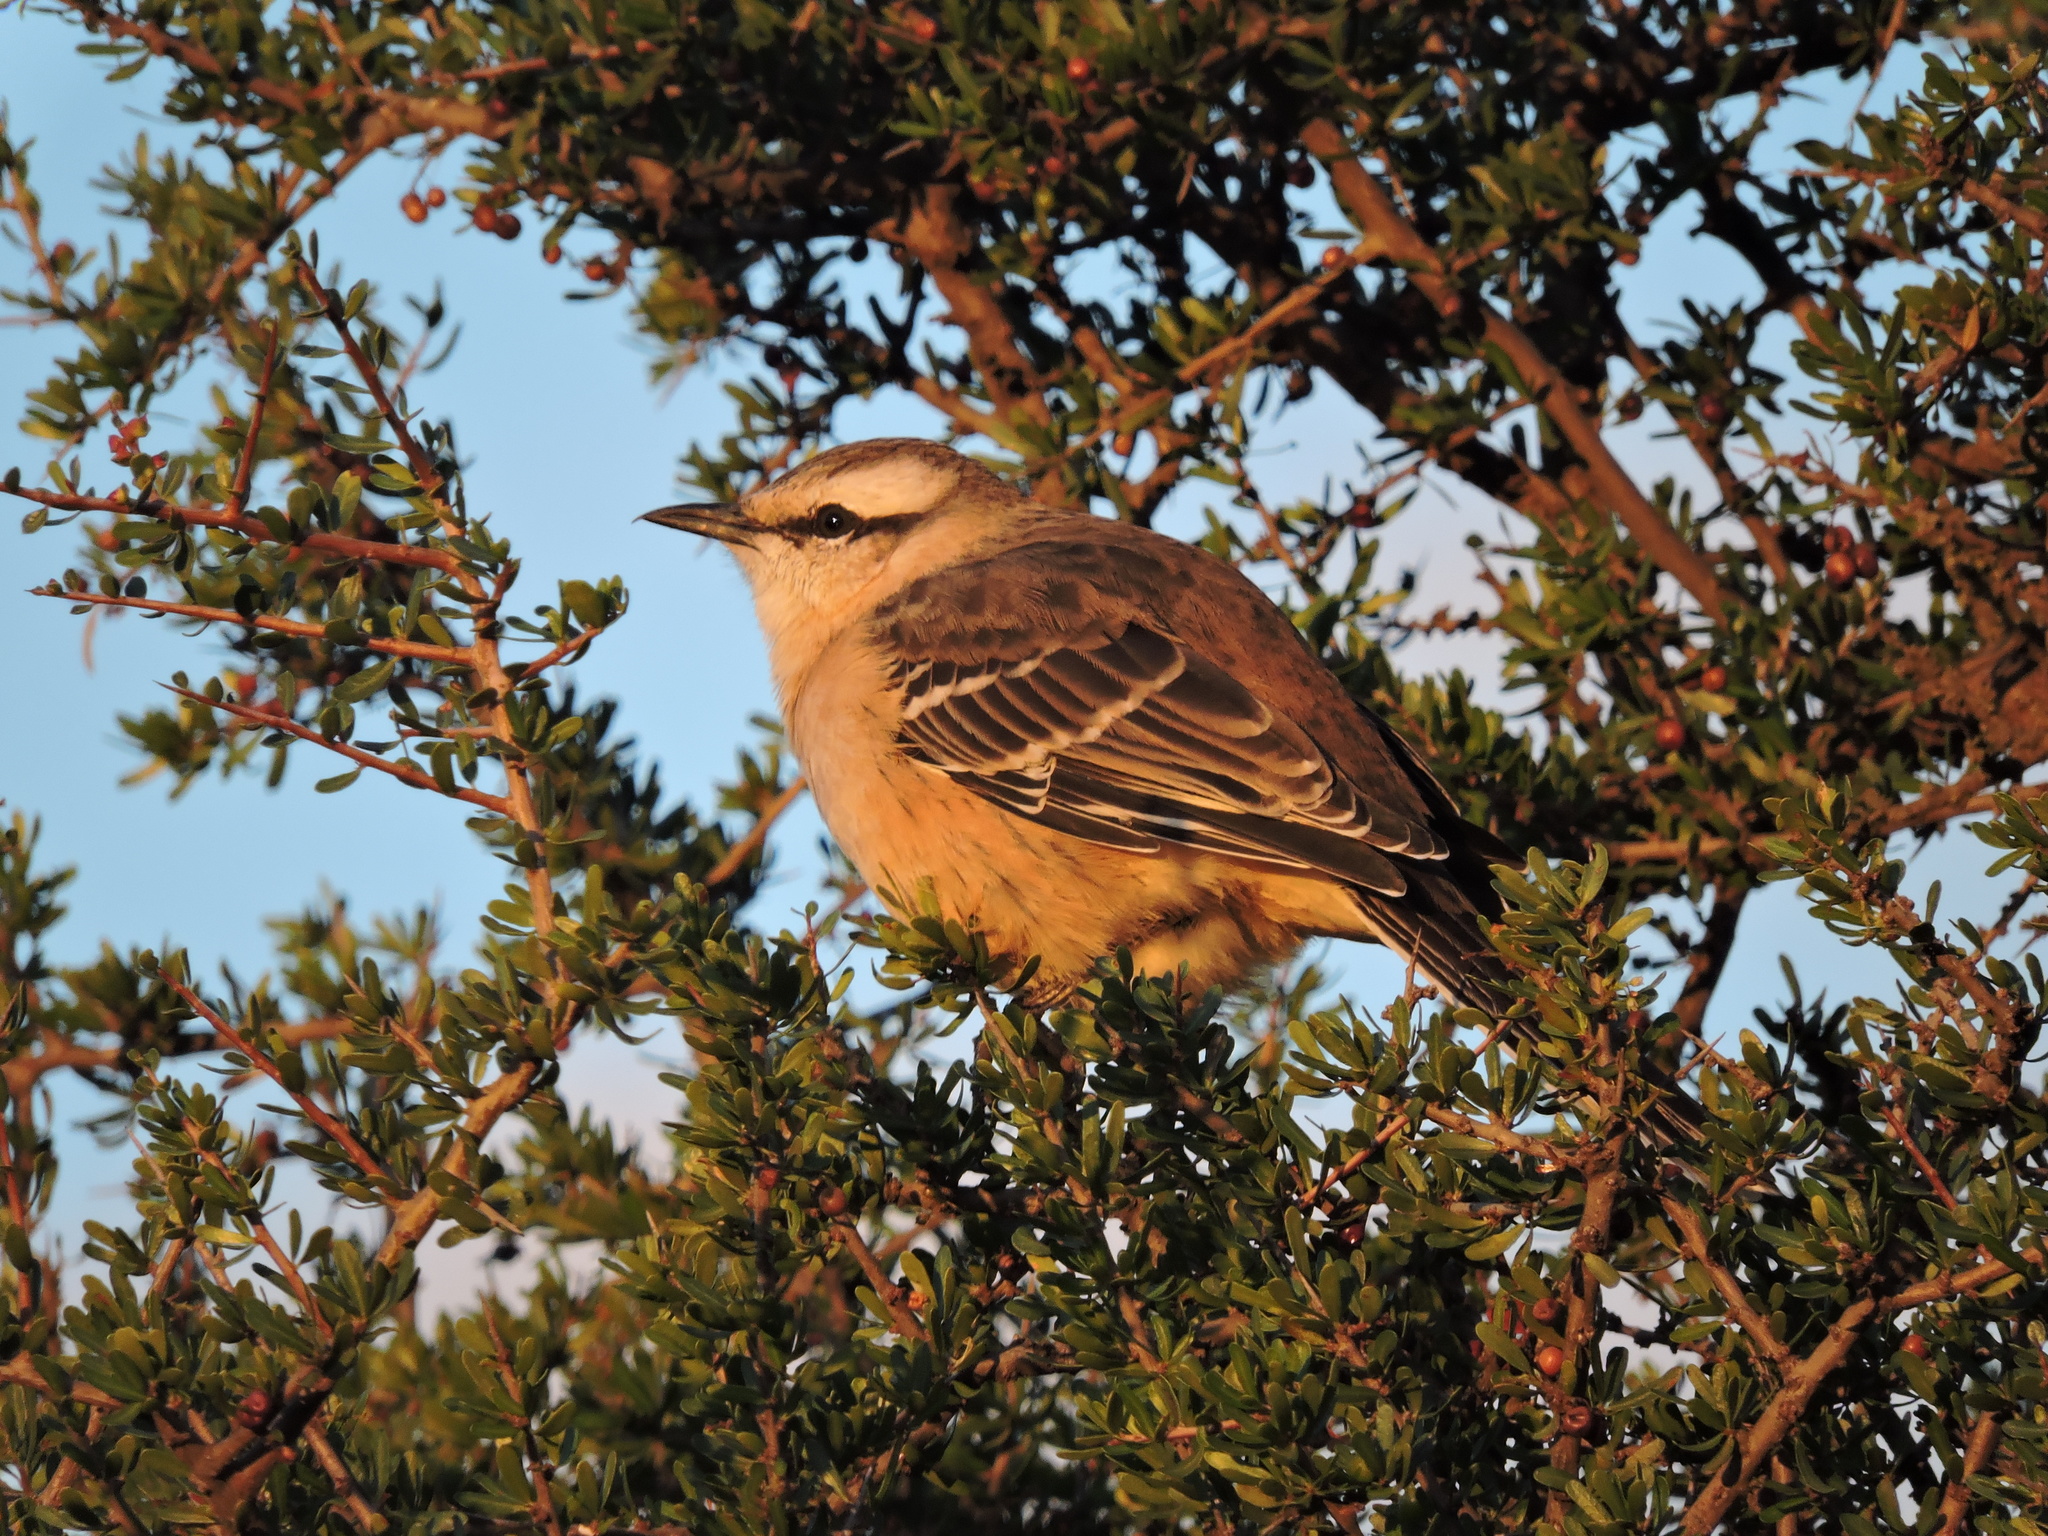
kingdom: Animalia
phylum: Chordata
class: Aves
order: Passeriformes
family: Mimidae
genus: Mimus
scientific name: Mimus saturninus
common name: Chalk-browed mockingbird
